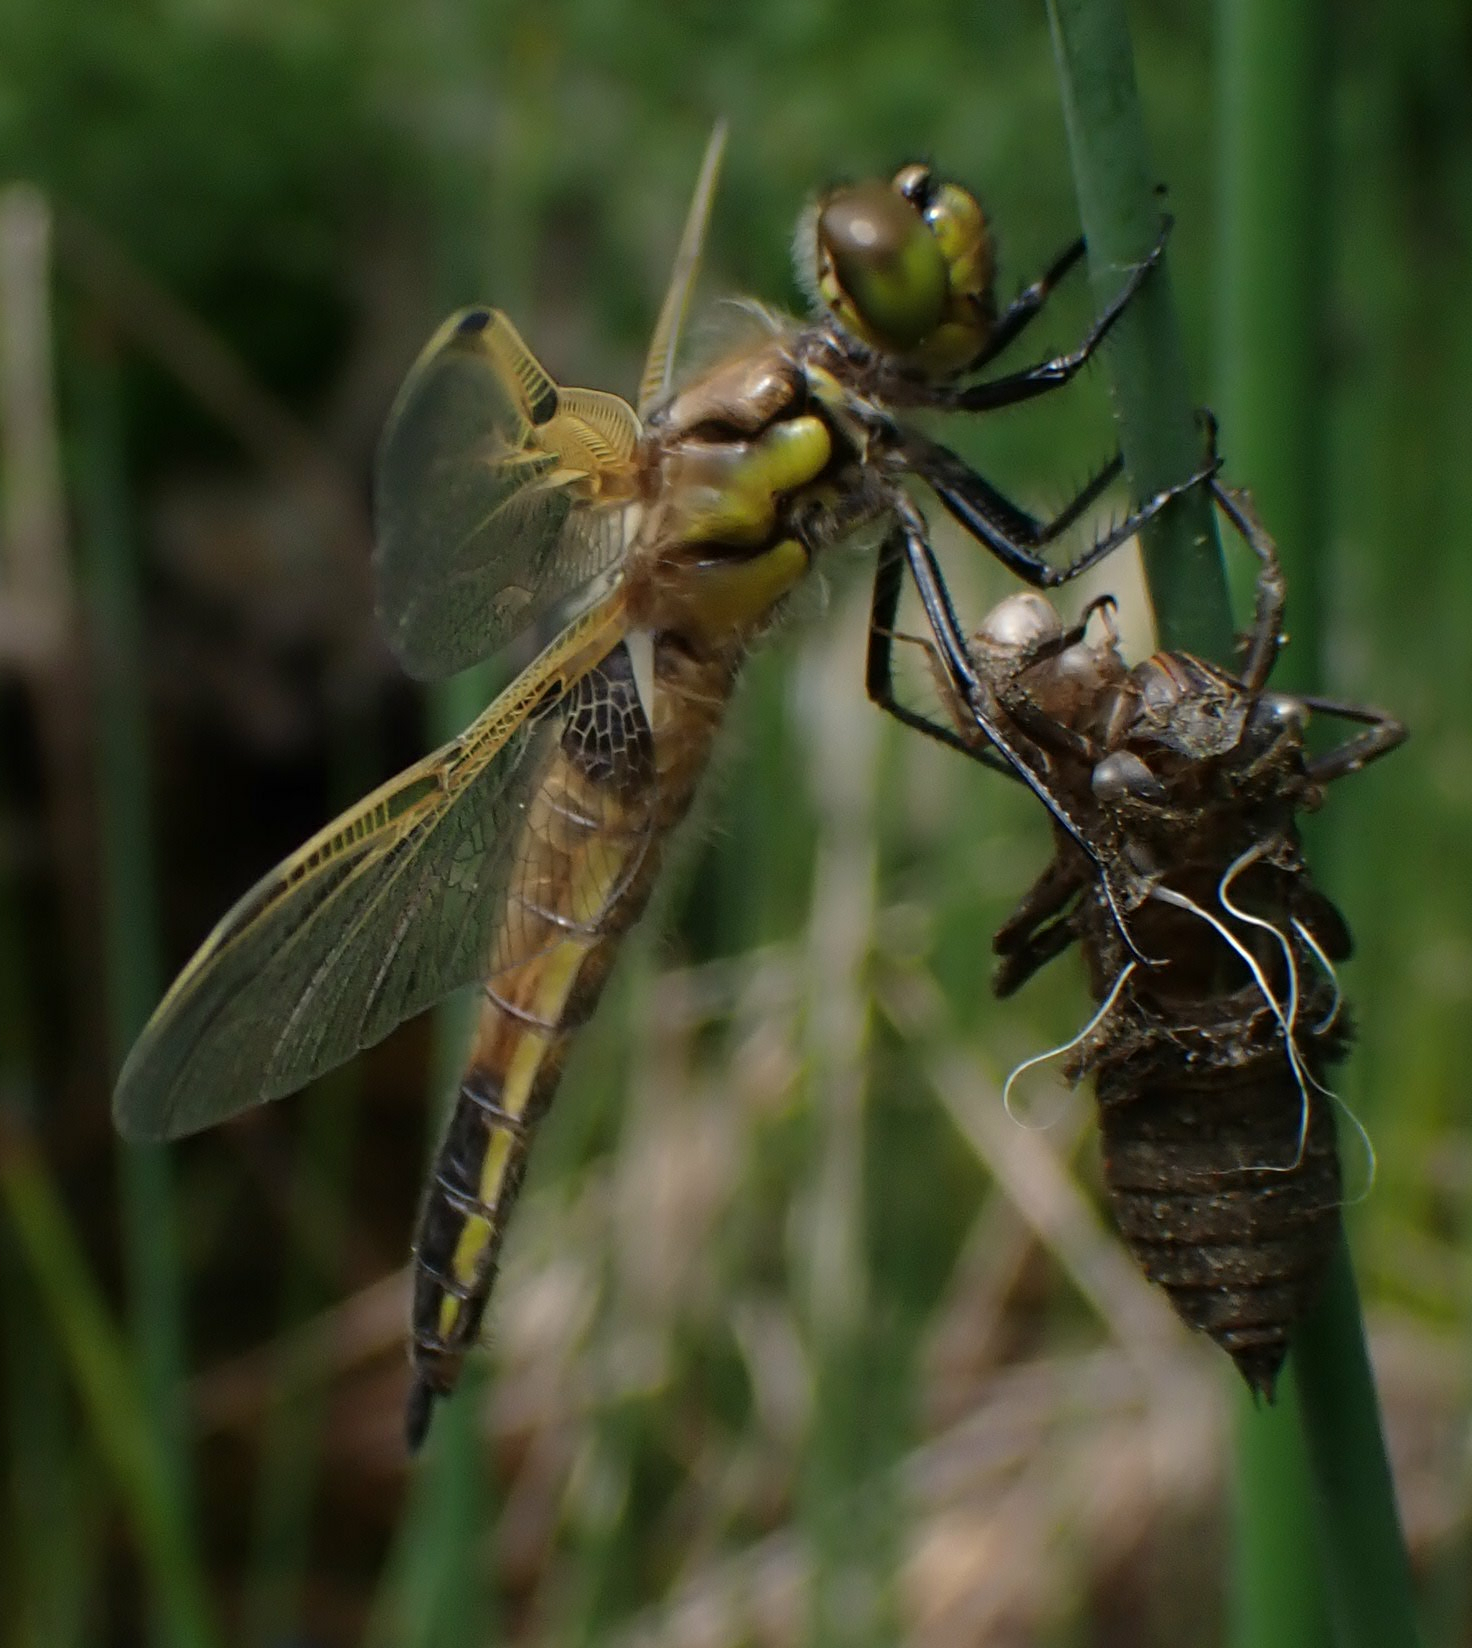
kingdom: Animalia
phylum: Arthropoda
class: Insecta
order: Odonata
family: Libellulidae
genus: Libellula
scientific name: Libellula quadrimaculata
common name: Four-spotted chaser
